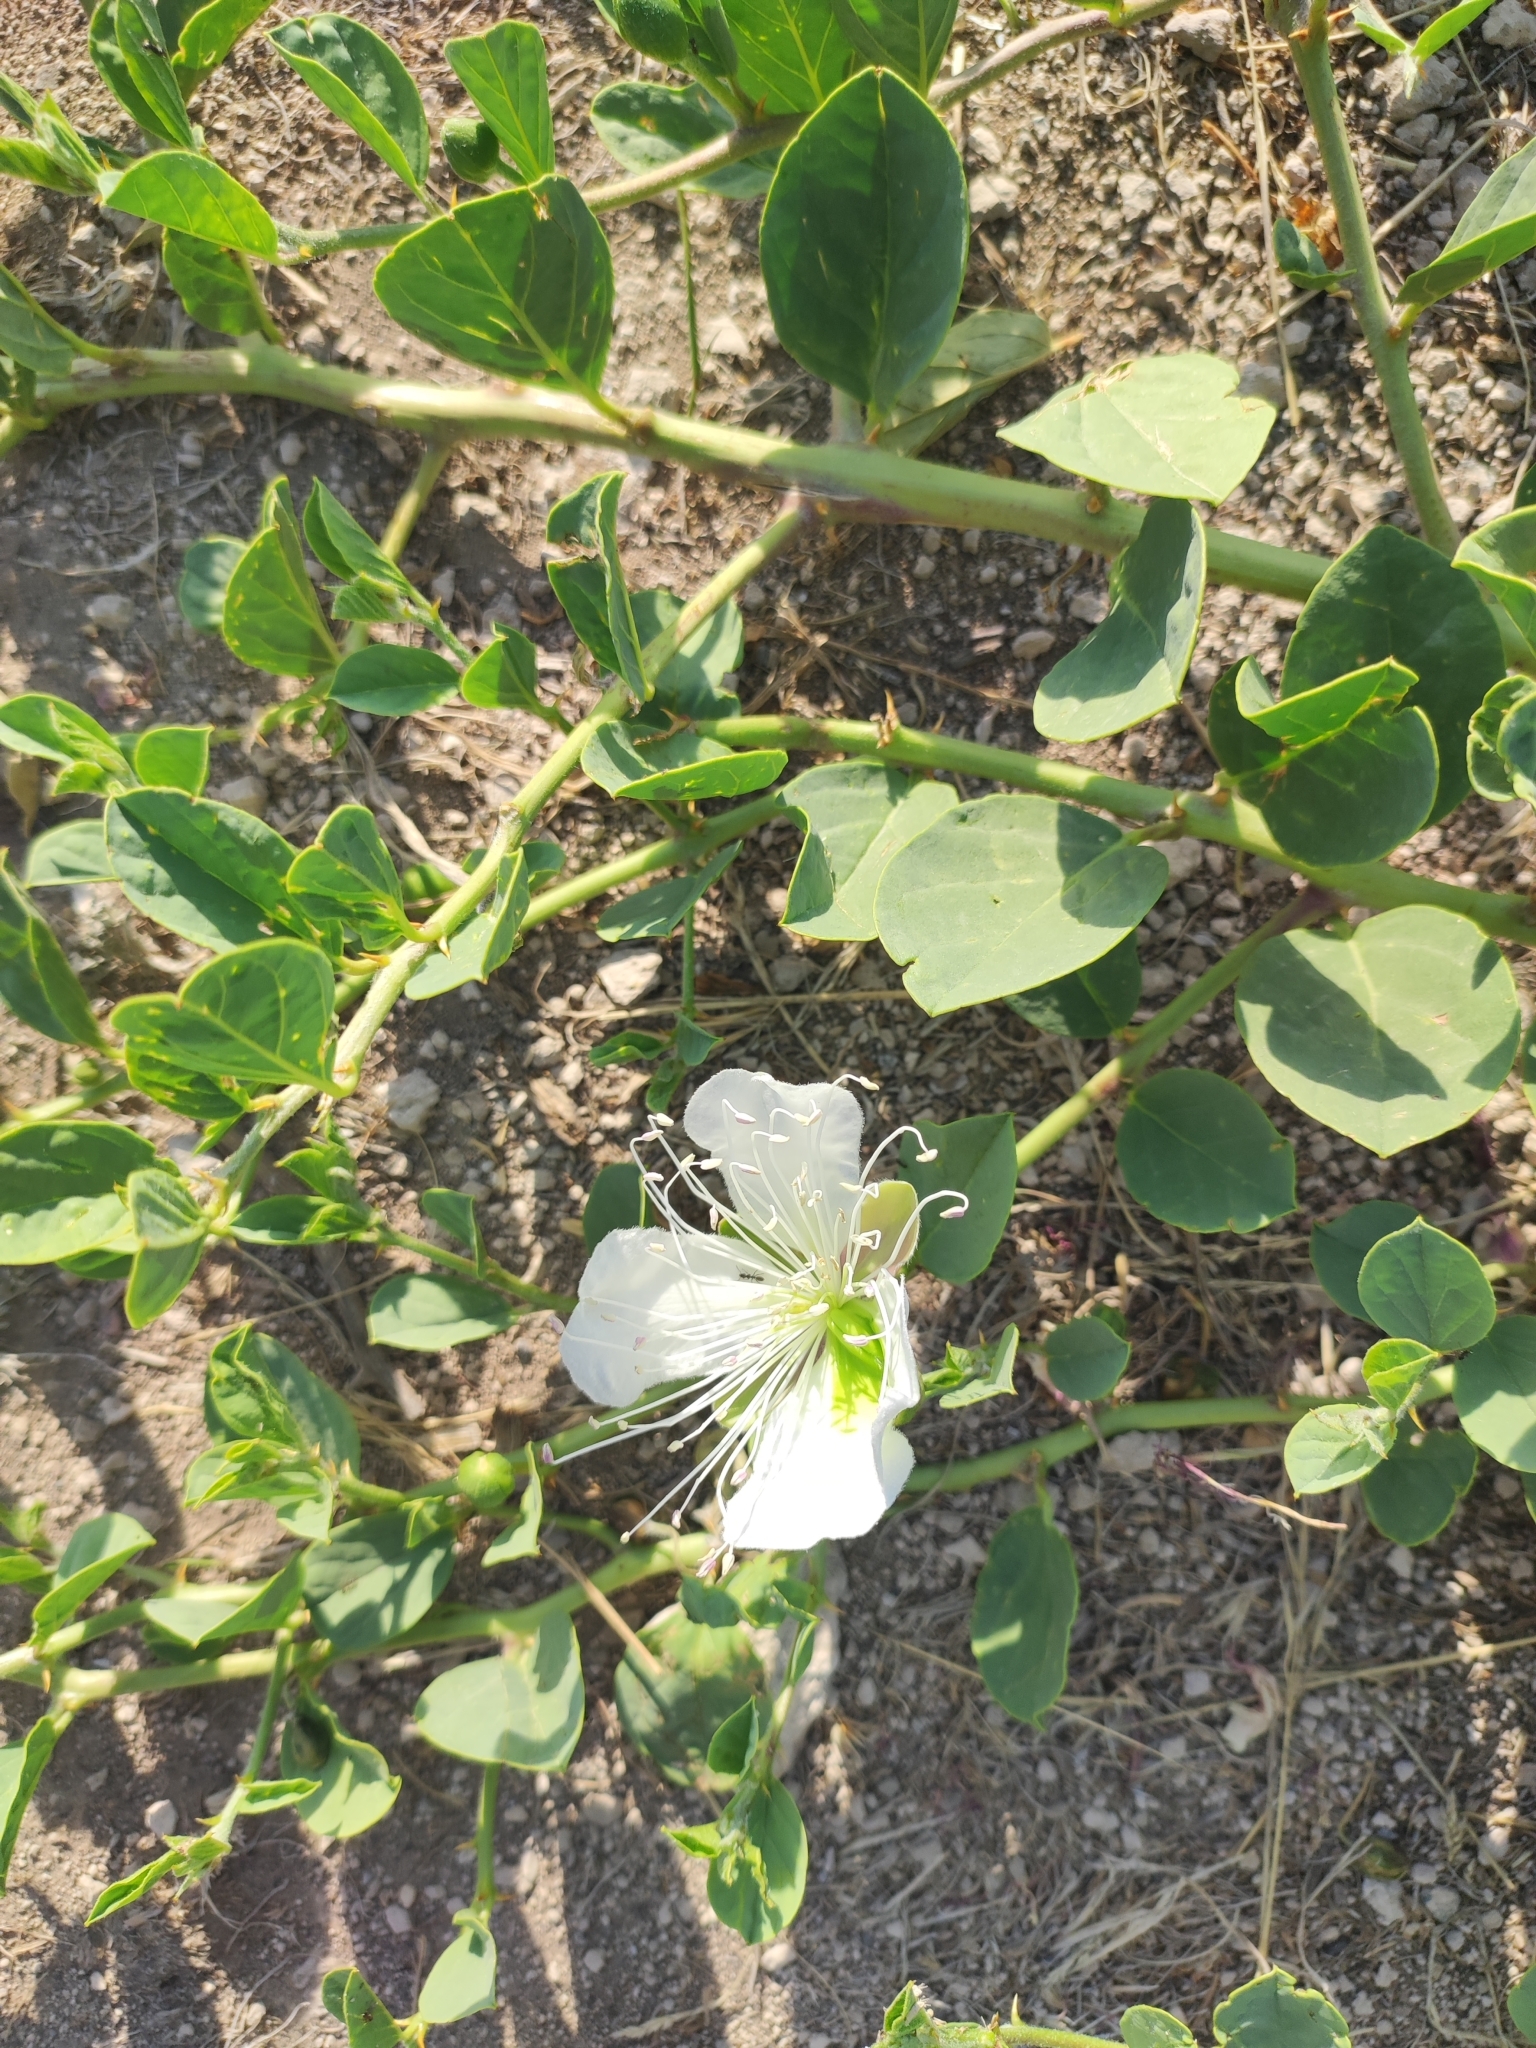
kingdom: Plantae
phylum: Tracheophyta
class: Magnoliopsida
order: Brassicales
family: Capparaceae
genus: Capparis
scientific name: Capparis spinosa
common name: Caper
